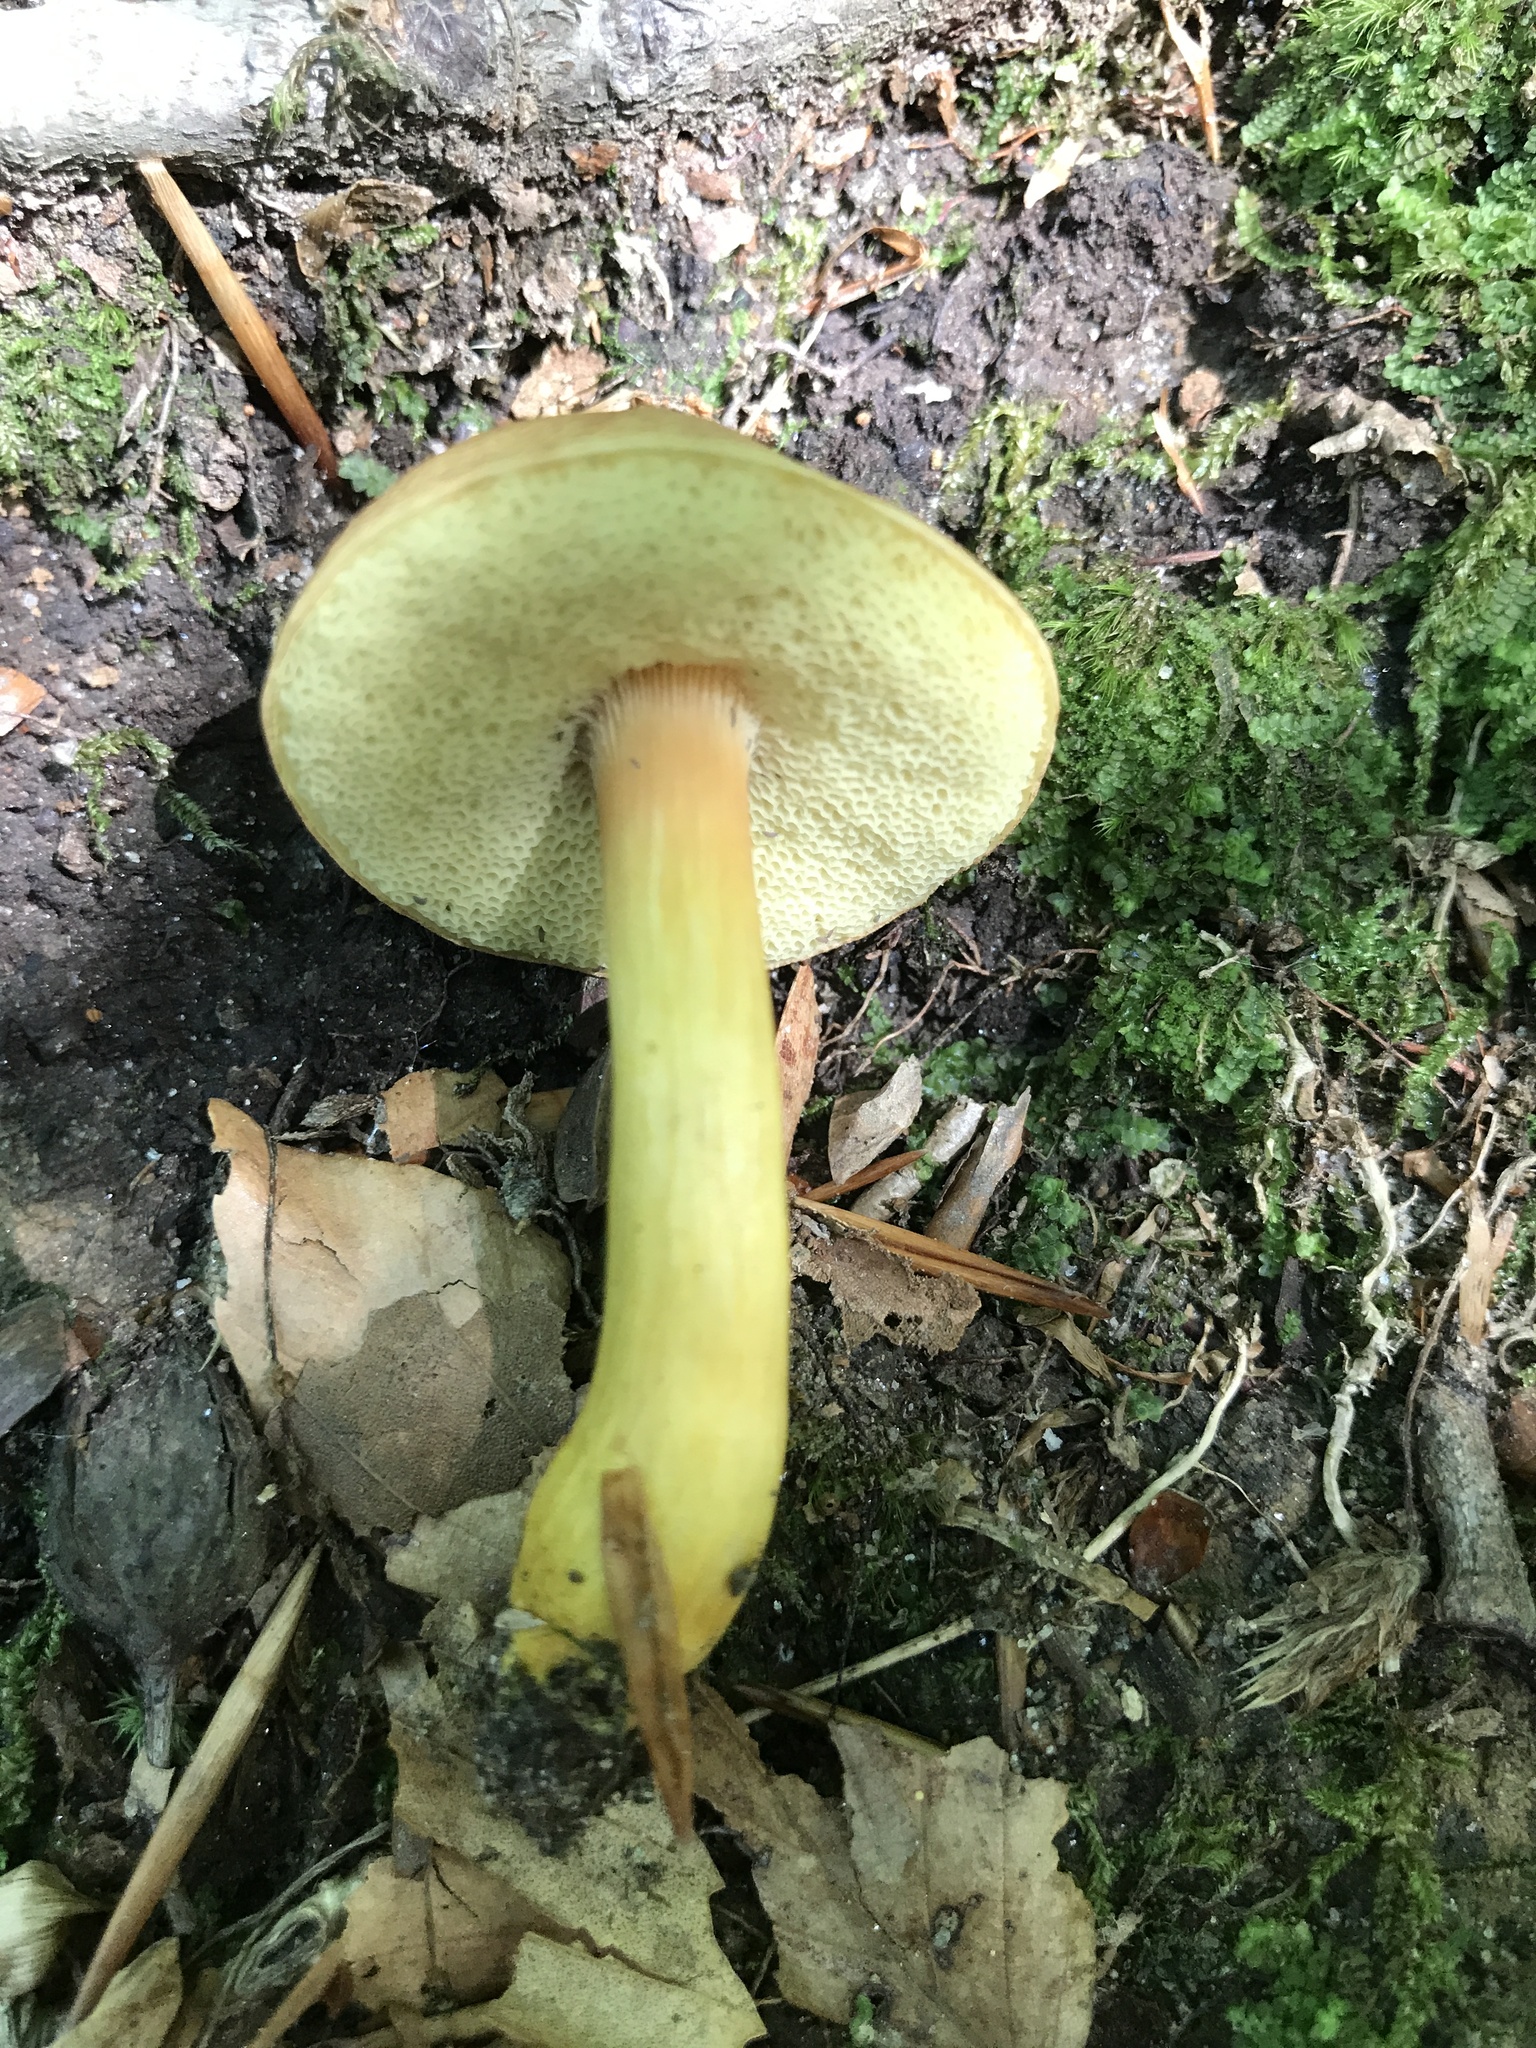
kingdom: Fungi
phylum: Basidiomycota
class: Agaricomycetes
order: Boletales
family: Boletaceae
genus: Aureoboletus
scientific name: Aureoboletus roxanae
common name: Roxane's bolete
